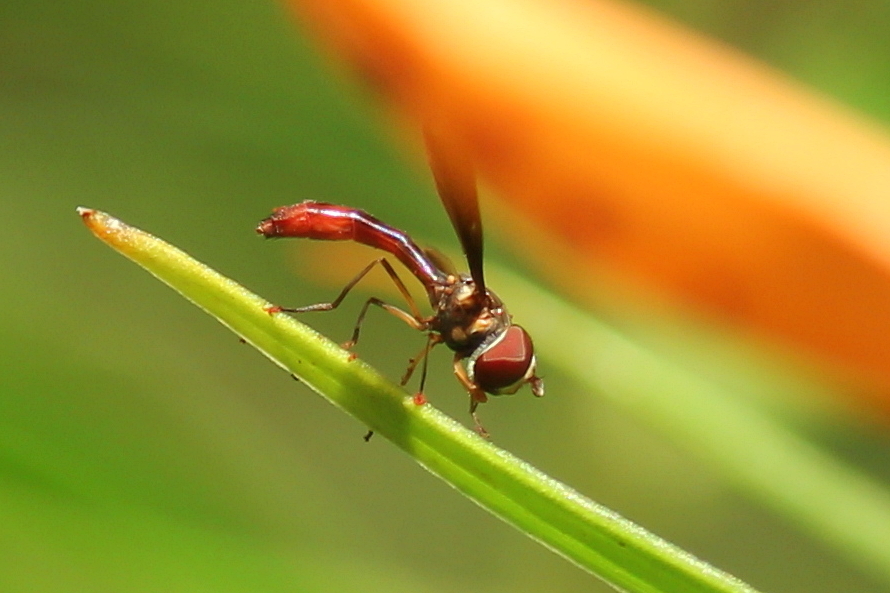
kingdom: Animalia
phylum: Arthropoda
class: Insecta
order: Diptera
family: Syrphidae
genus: Ocyptamus
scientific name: Ocyptamus fuscipennis
